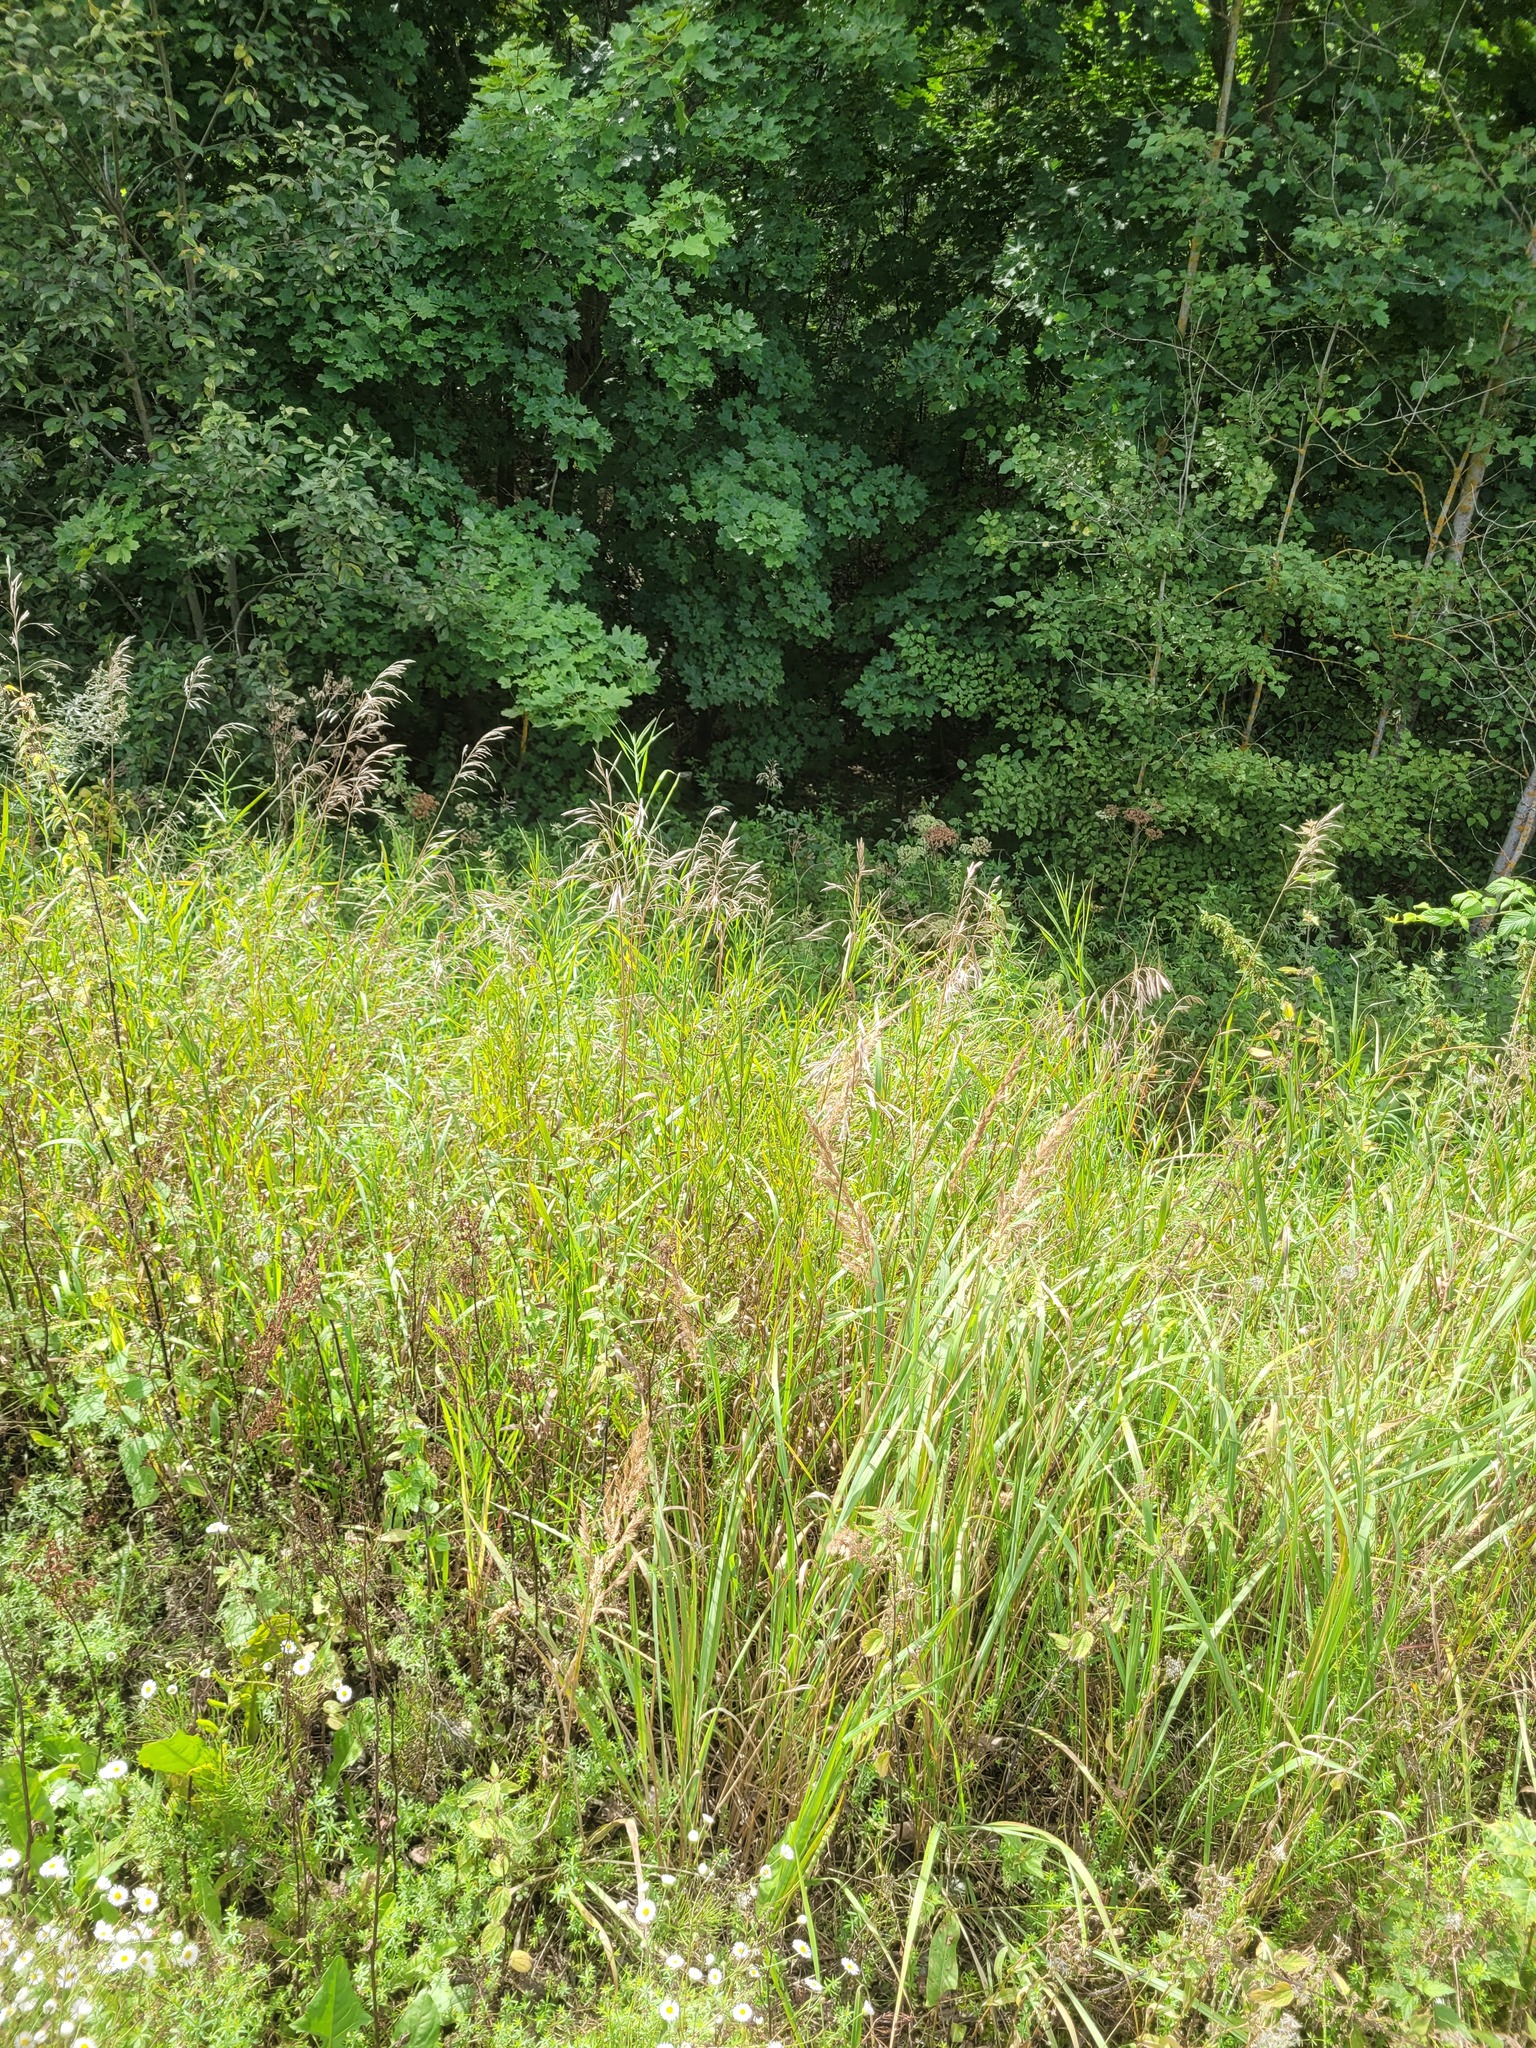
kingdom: Plantae
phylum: Tracheophyta
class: Liliopsida
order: Poales
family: Poaceae
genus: Bromus
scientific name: Bromus inermis
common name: Smooth brome
